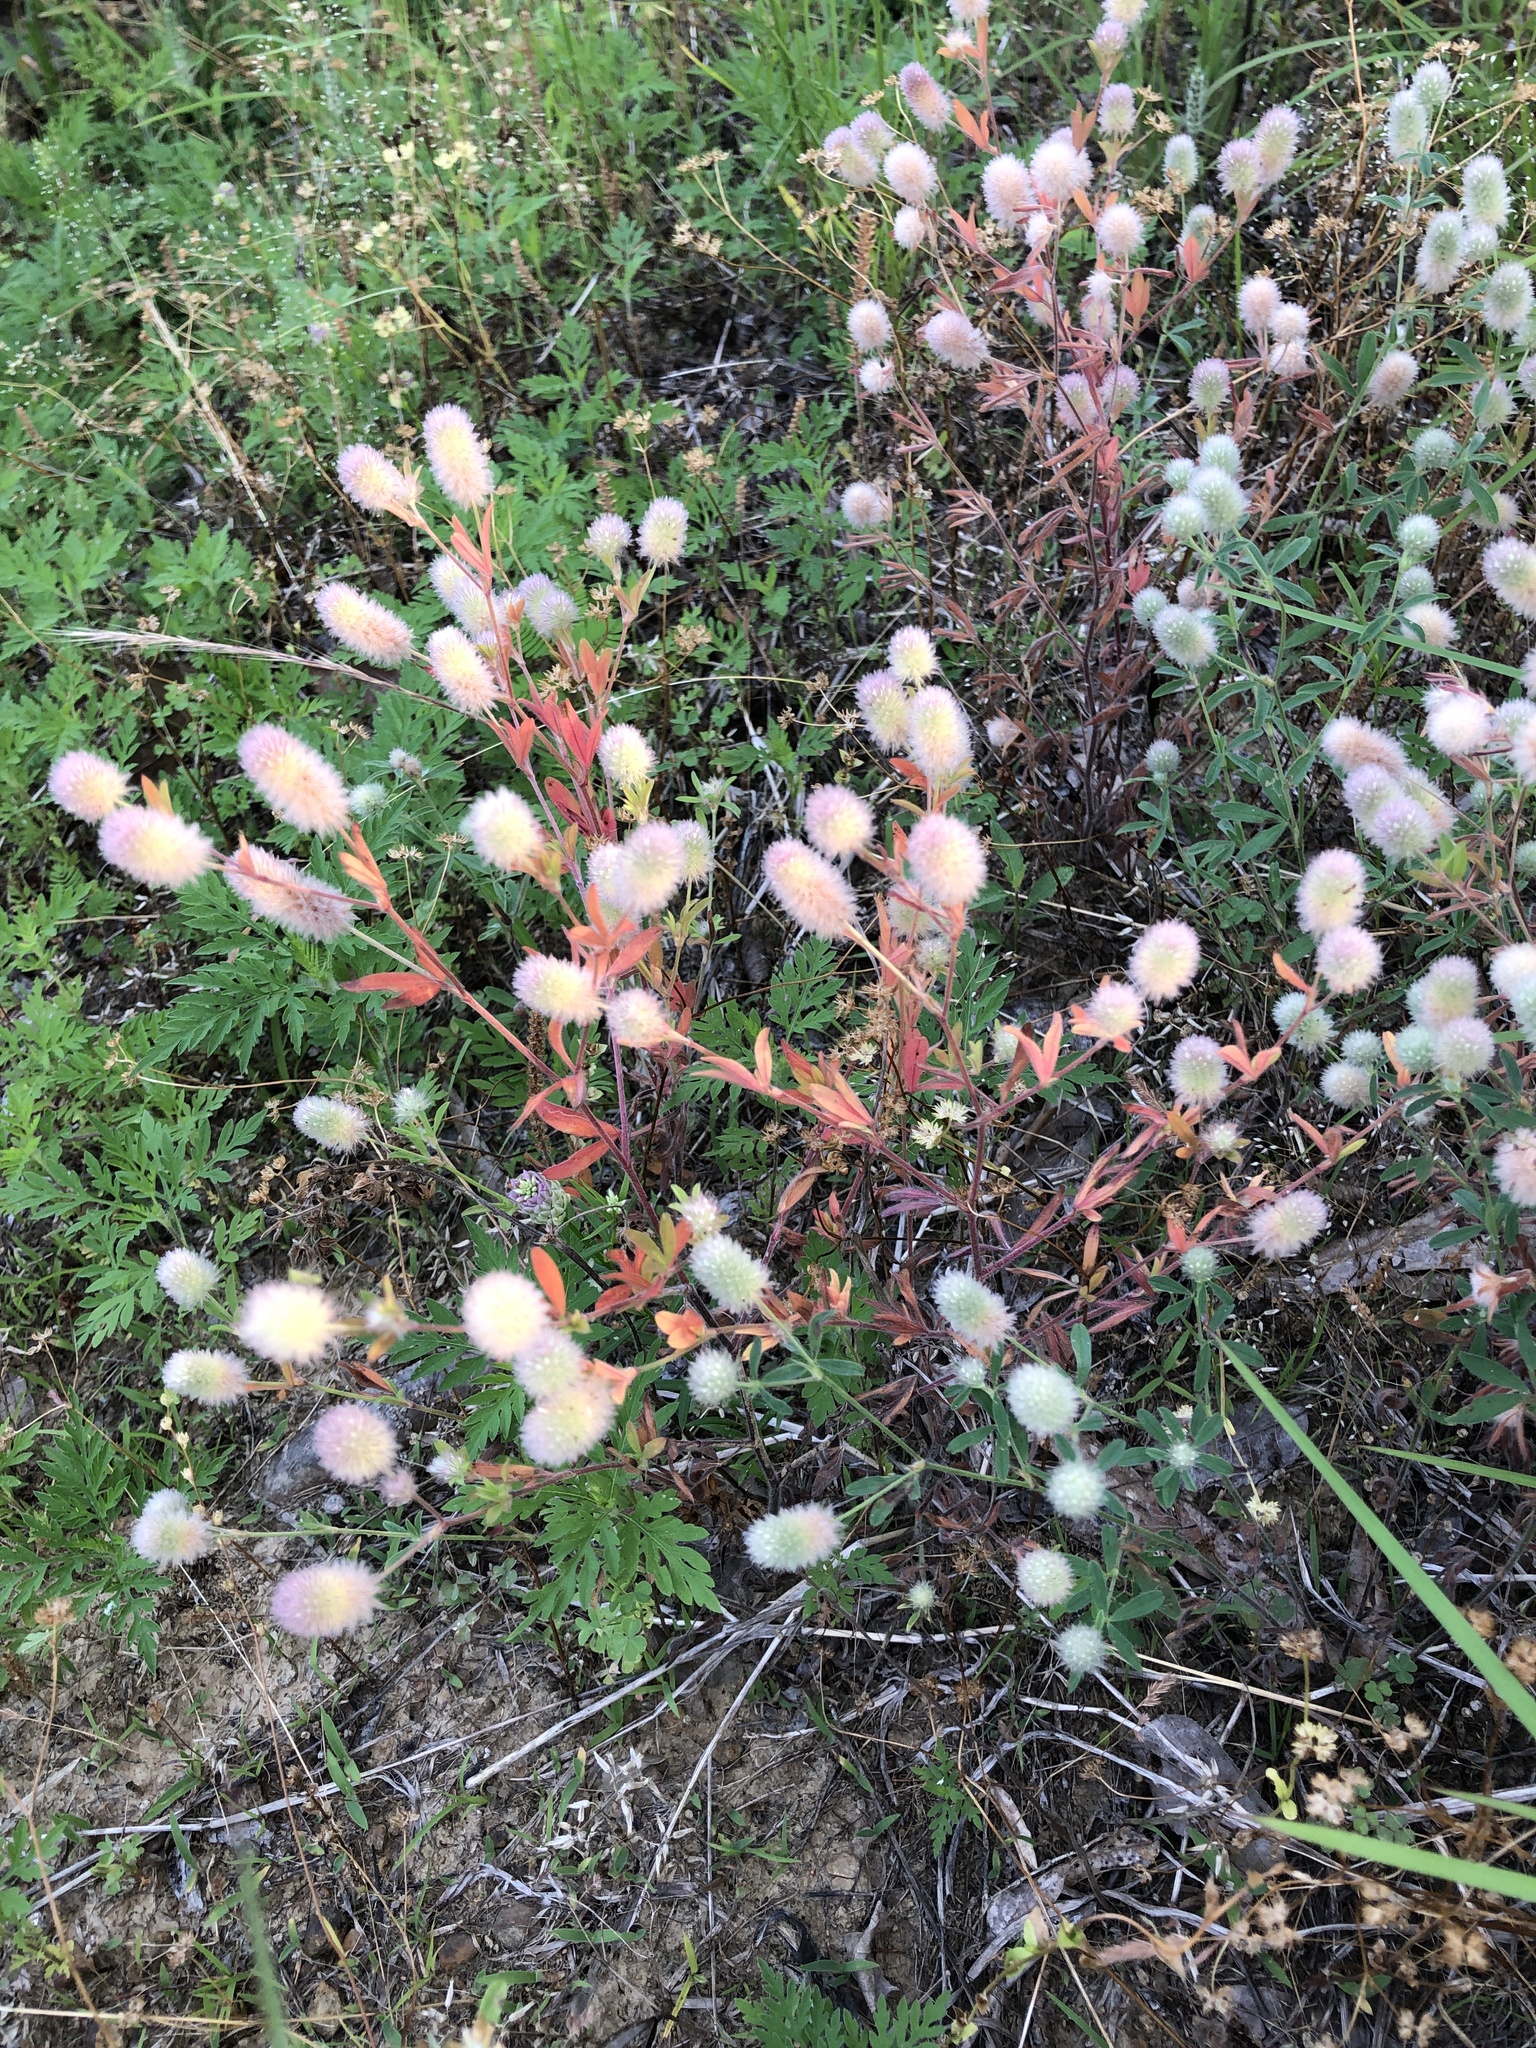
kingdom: Plantae
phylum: Tracheophyta
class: Magnoliopsida
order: Fabales
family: Fabaceae
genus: Trifolium
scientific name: Trifolium arvense
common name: Hare's-foot clover
